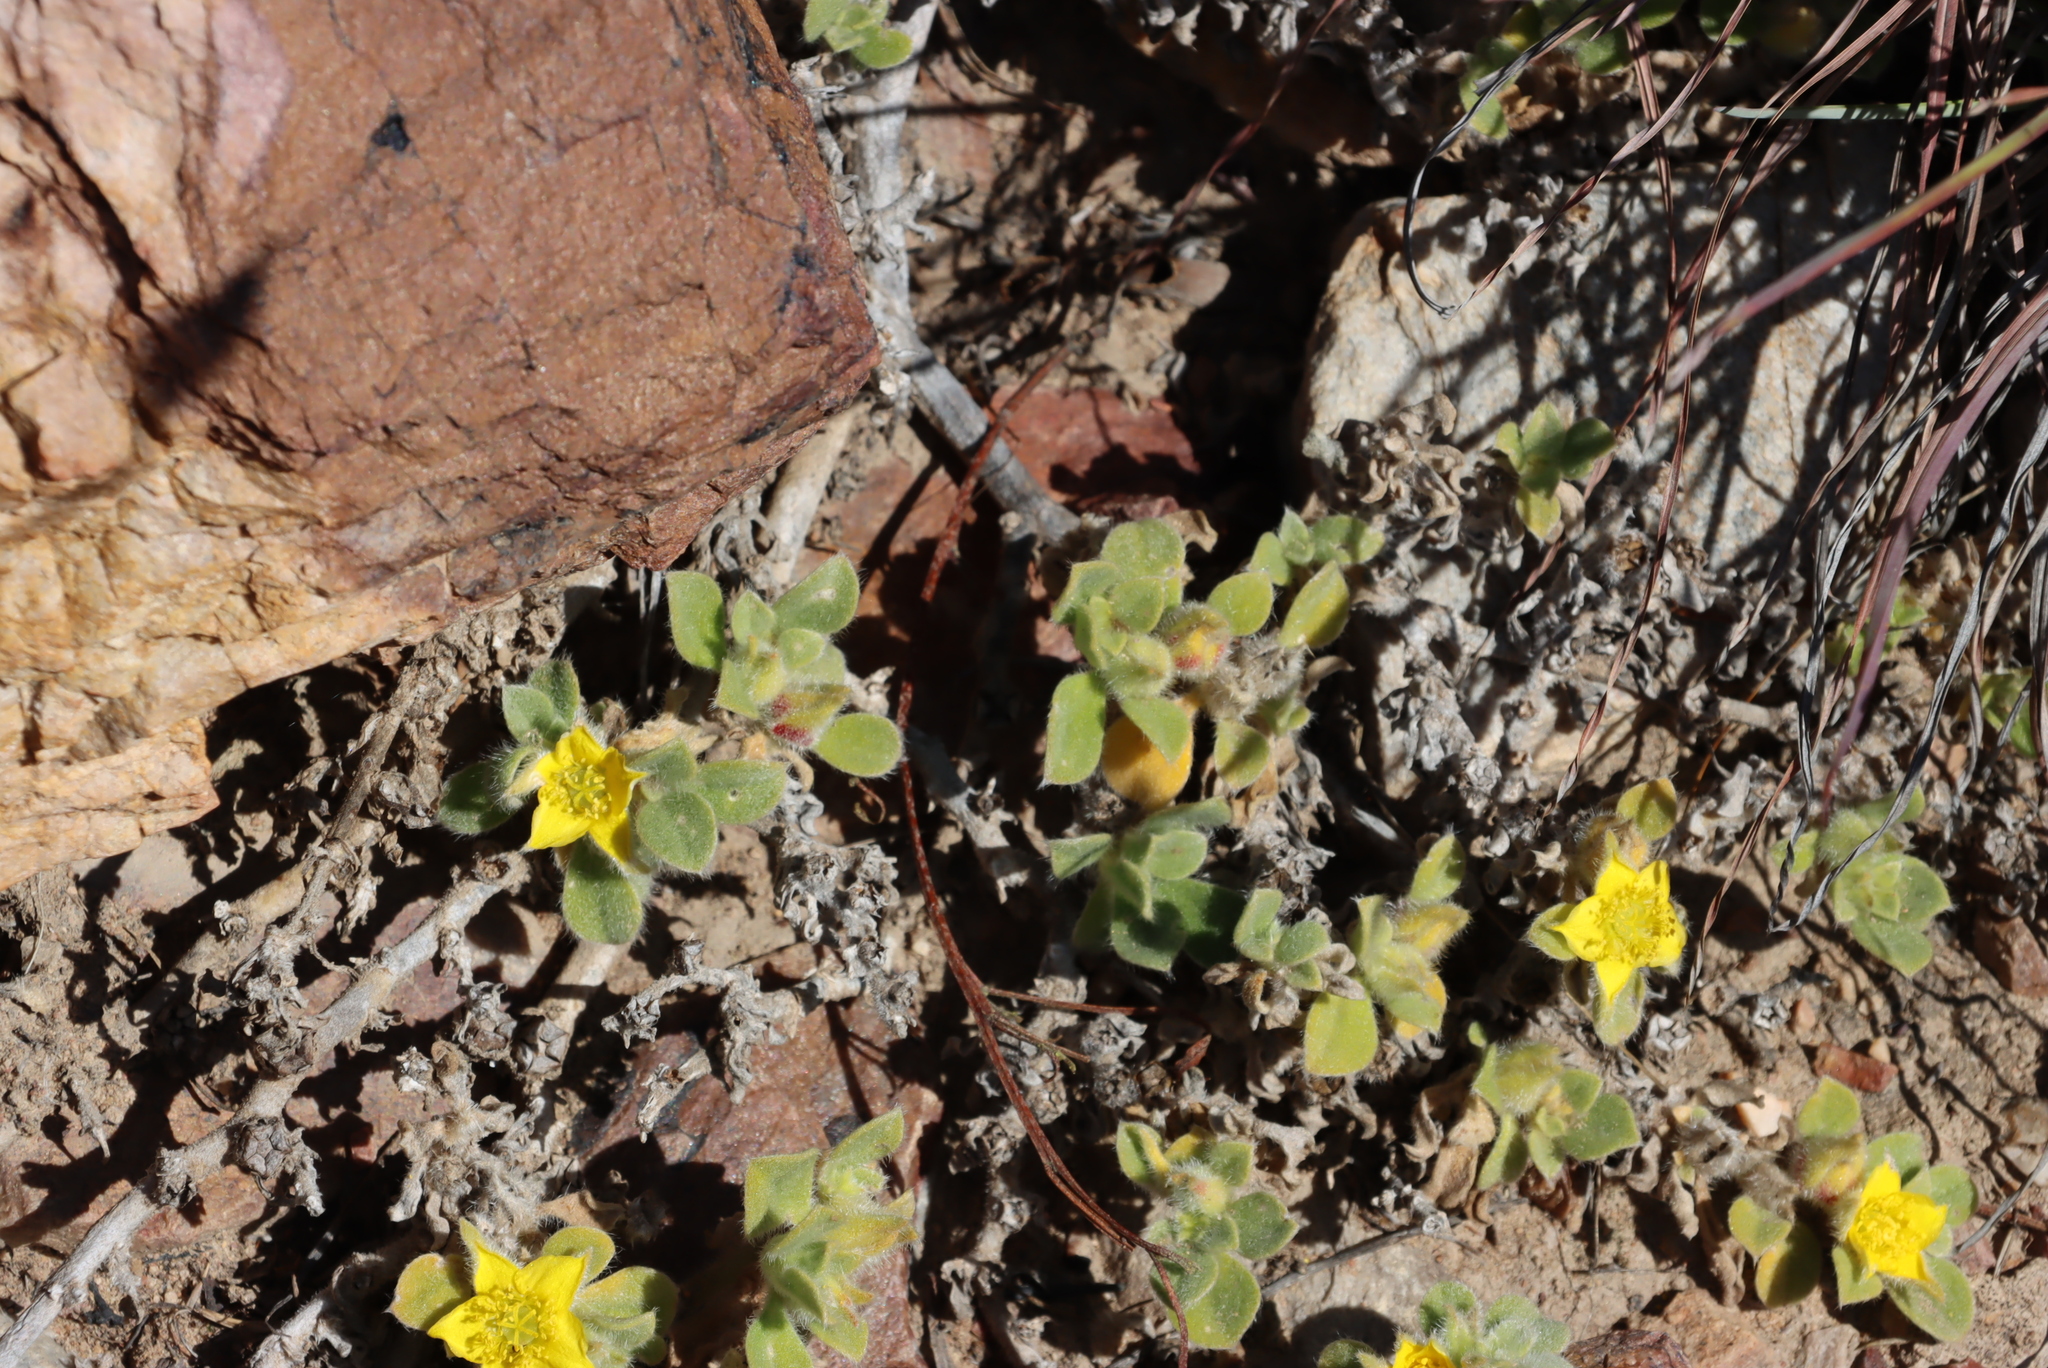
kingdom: Plantae
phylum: Tracheophyta
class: Magnoliopsida
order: Caryophyllales
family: Aizoaceae
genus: Aizoon
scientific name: Aizoon glinoides
